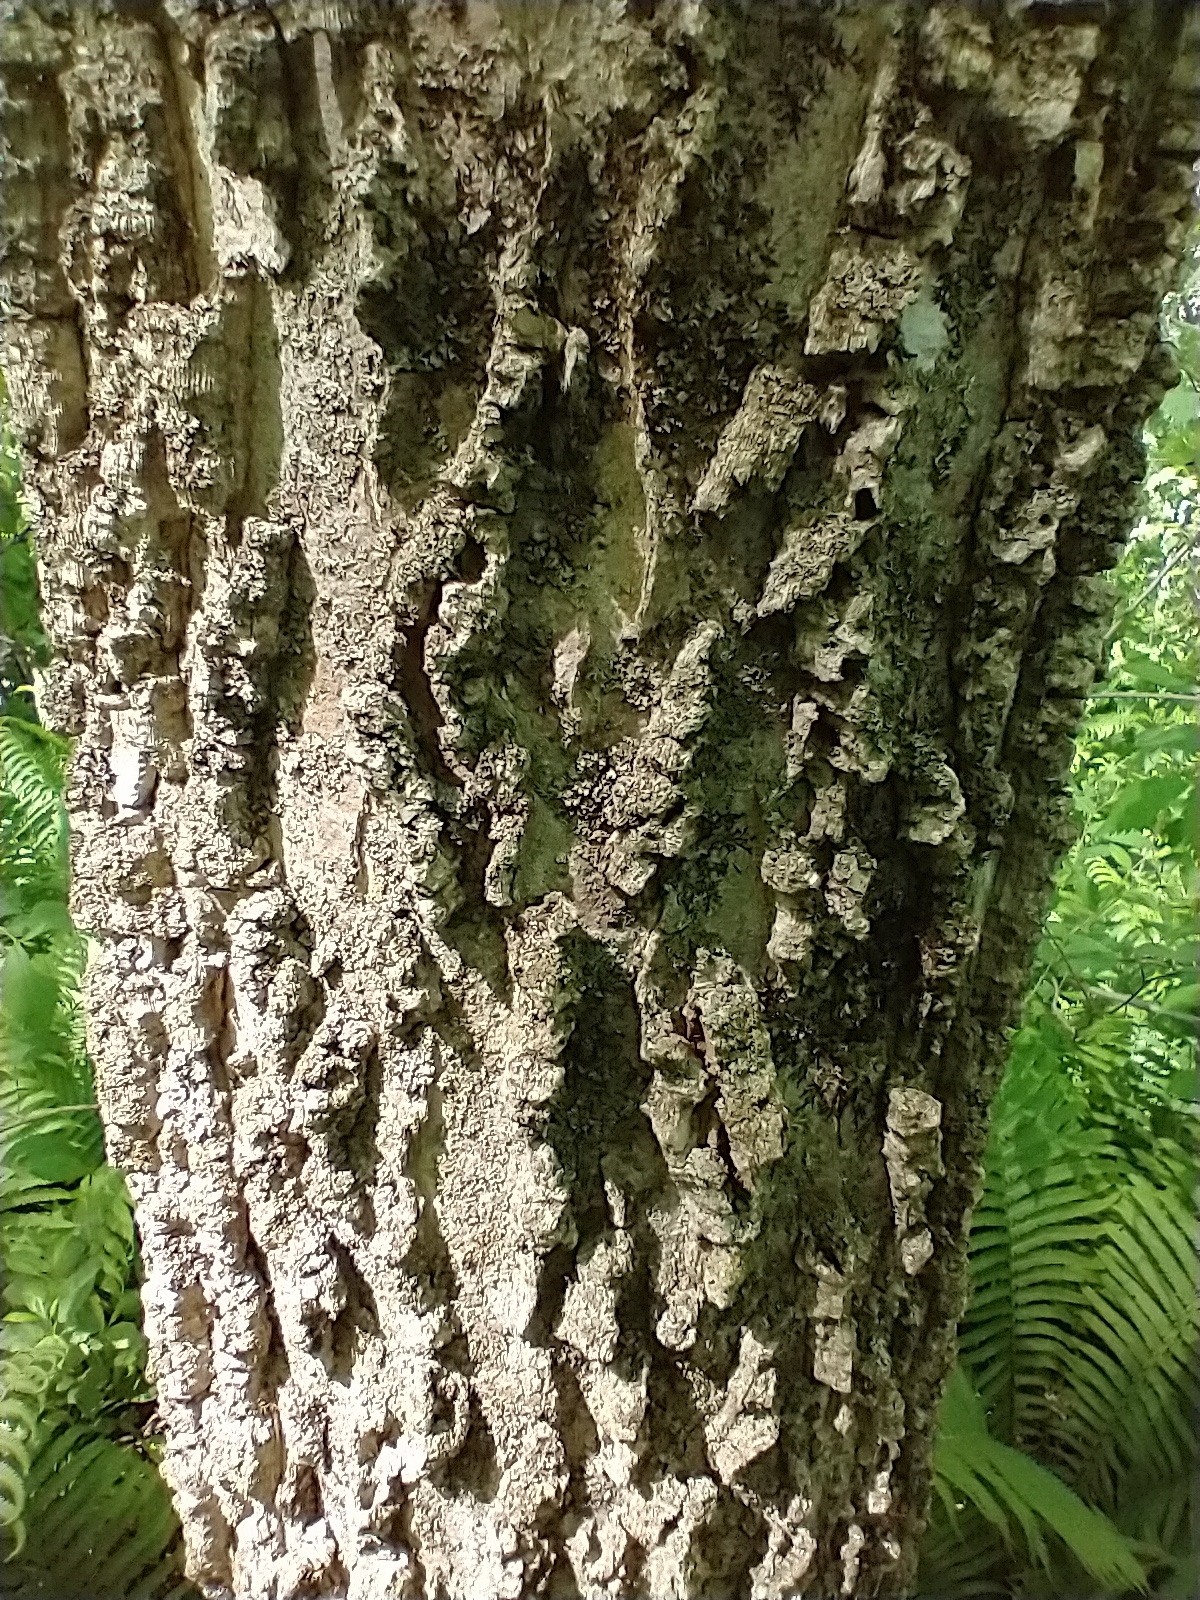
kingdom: Plantae
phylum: Tracheophyta
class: Magnoliopsida
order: Rosales
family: Cannabaceae
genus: Celtis
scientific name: Celtis occidentalis
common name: Common hackberry
